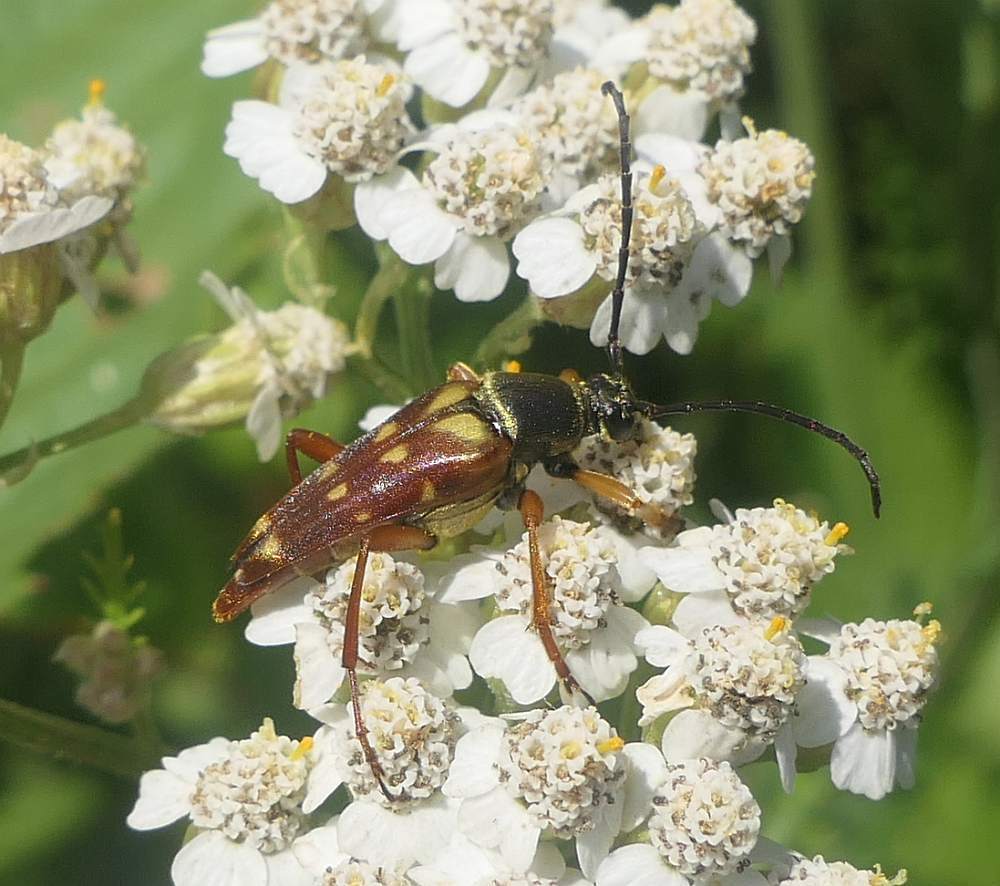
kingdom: Animalia
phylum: Arthropoda
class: Insecta
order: Coleoptera
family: Cerambycidae
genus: Typocerus
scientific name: Typocerus velutinus
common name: Banded longhorn beetle
